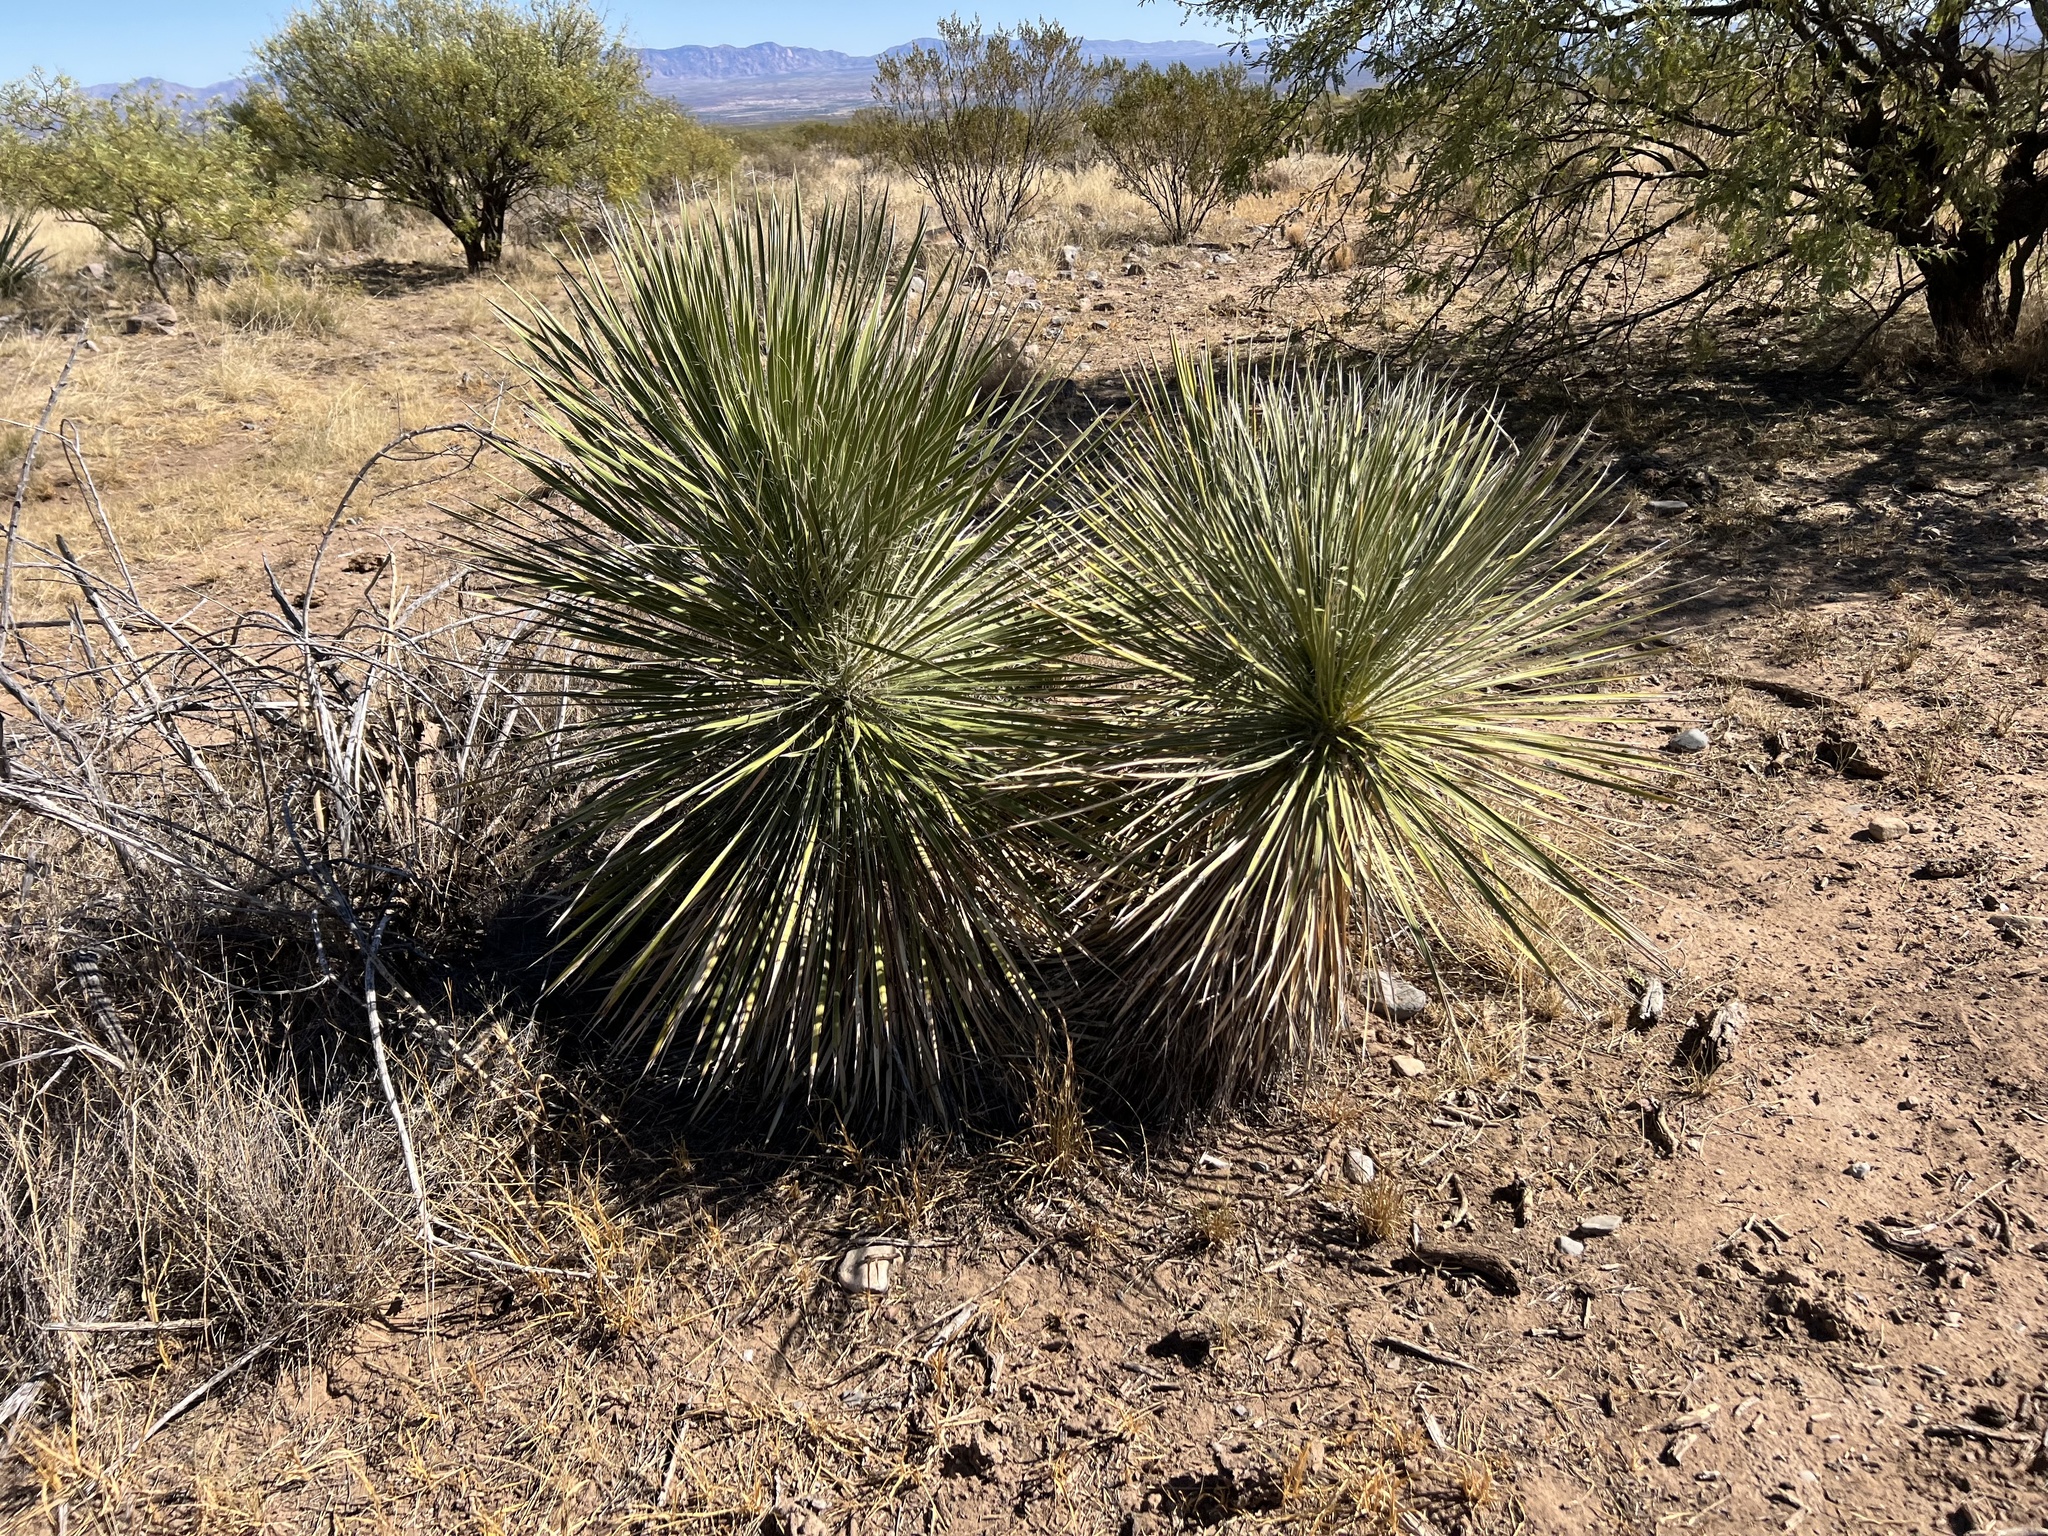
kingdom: Plantae
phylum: Tracheophyta
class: Liliopsida
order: Asparagales
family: Asparagaceae
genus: Yucca
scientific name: Yucca elata
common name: Palmella
